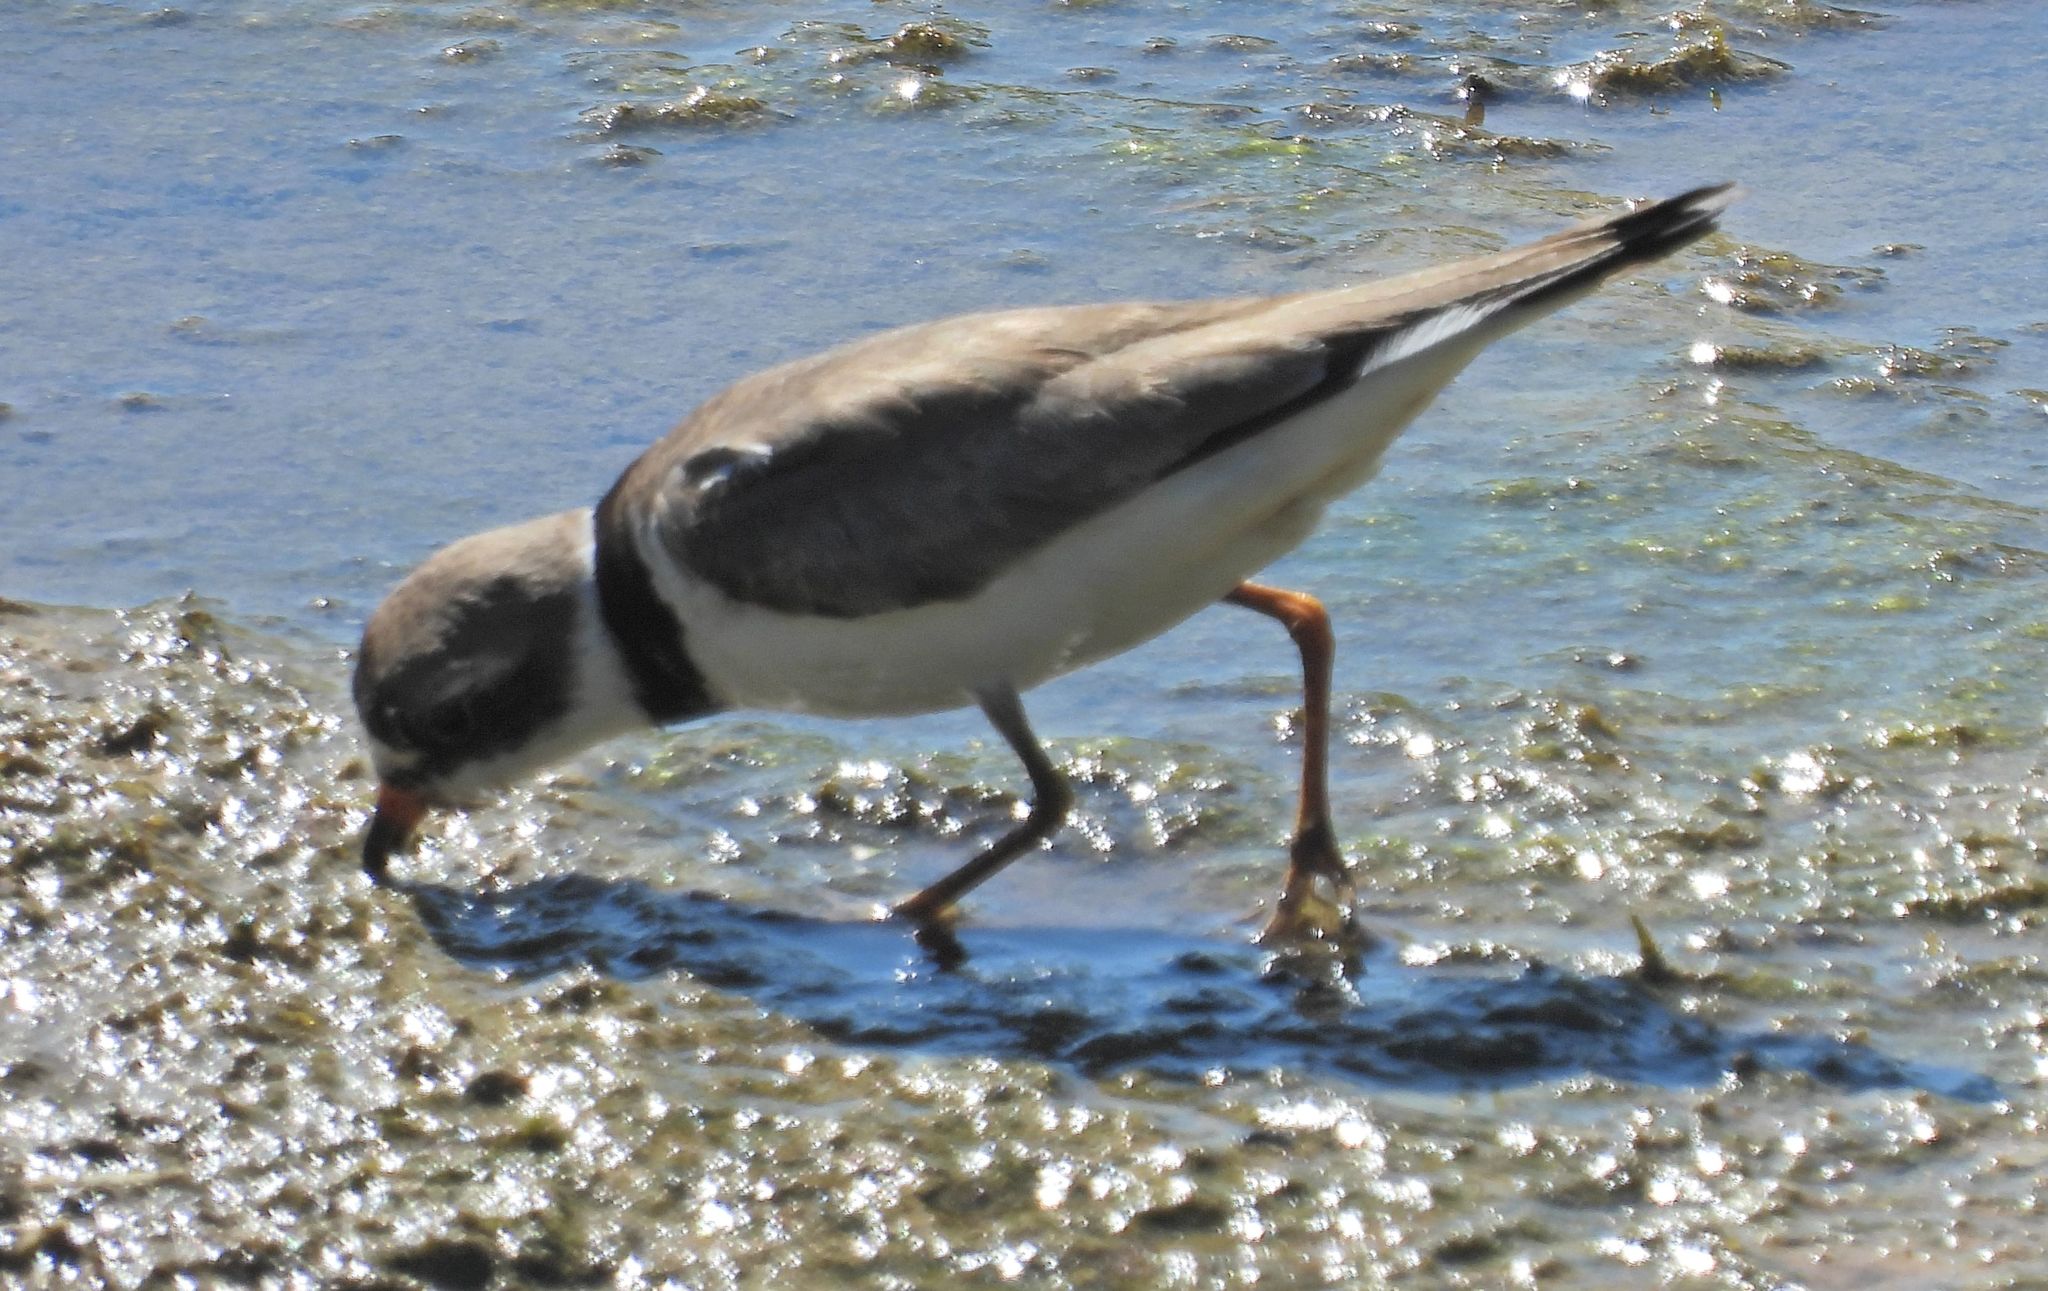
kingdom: Animalia
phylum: Chordata
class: Aves
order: Charadriiformes
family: Charadriidae
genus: Charadrius
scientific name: Charadrius semipalmatus
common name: Semipalmated plover
